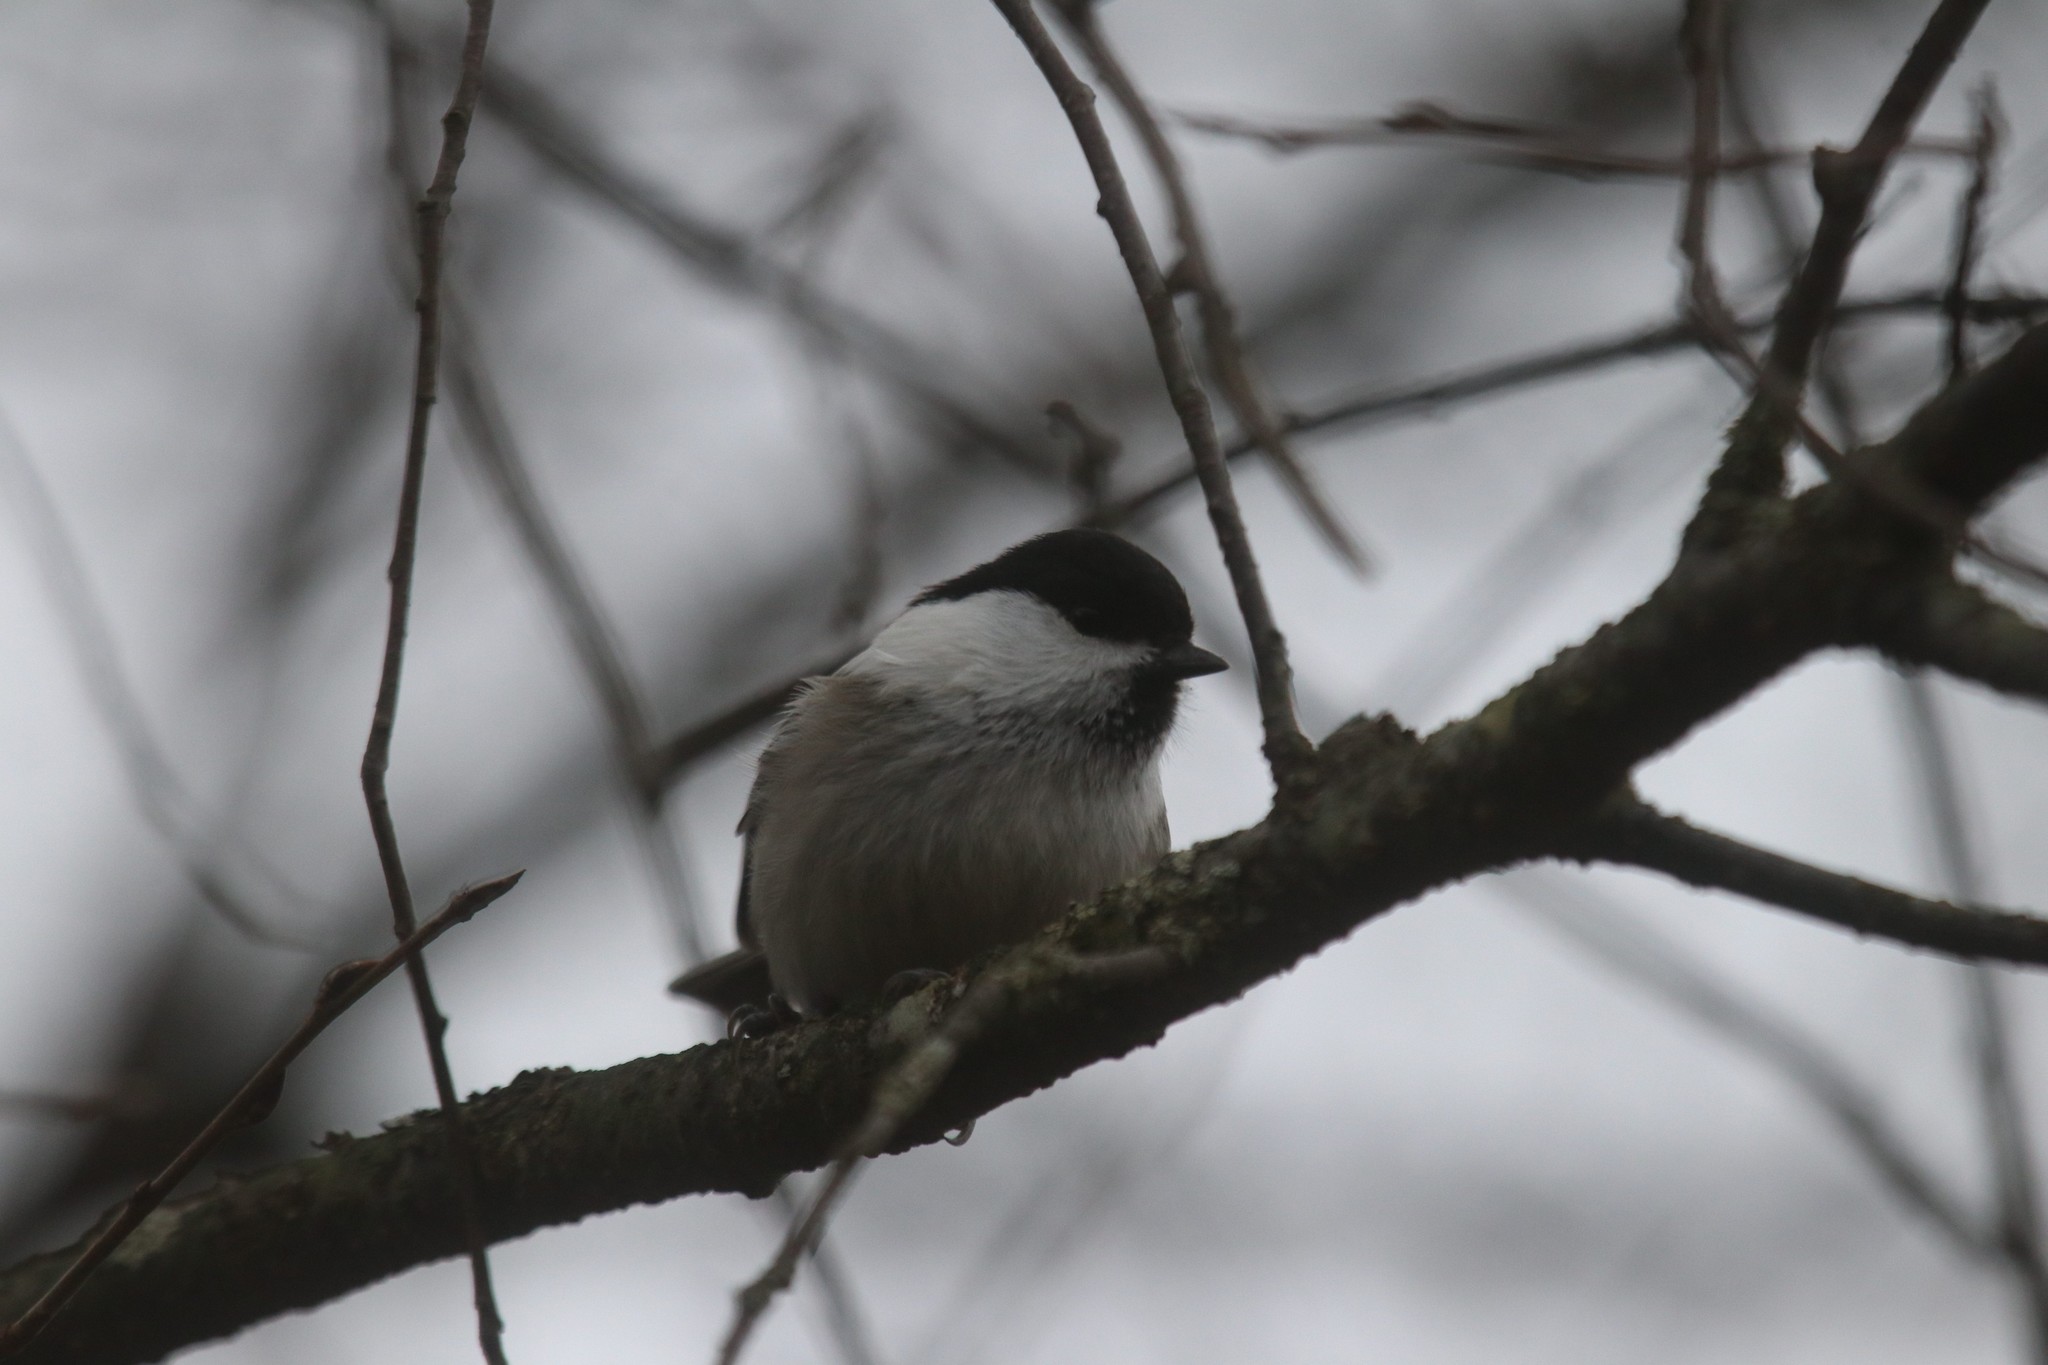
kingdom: Animalia
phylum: Chordata
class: Aves
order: Passeriformes
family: Paridae
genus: Poecile
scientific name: Poecile montanus
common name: Willow tit
